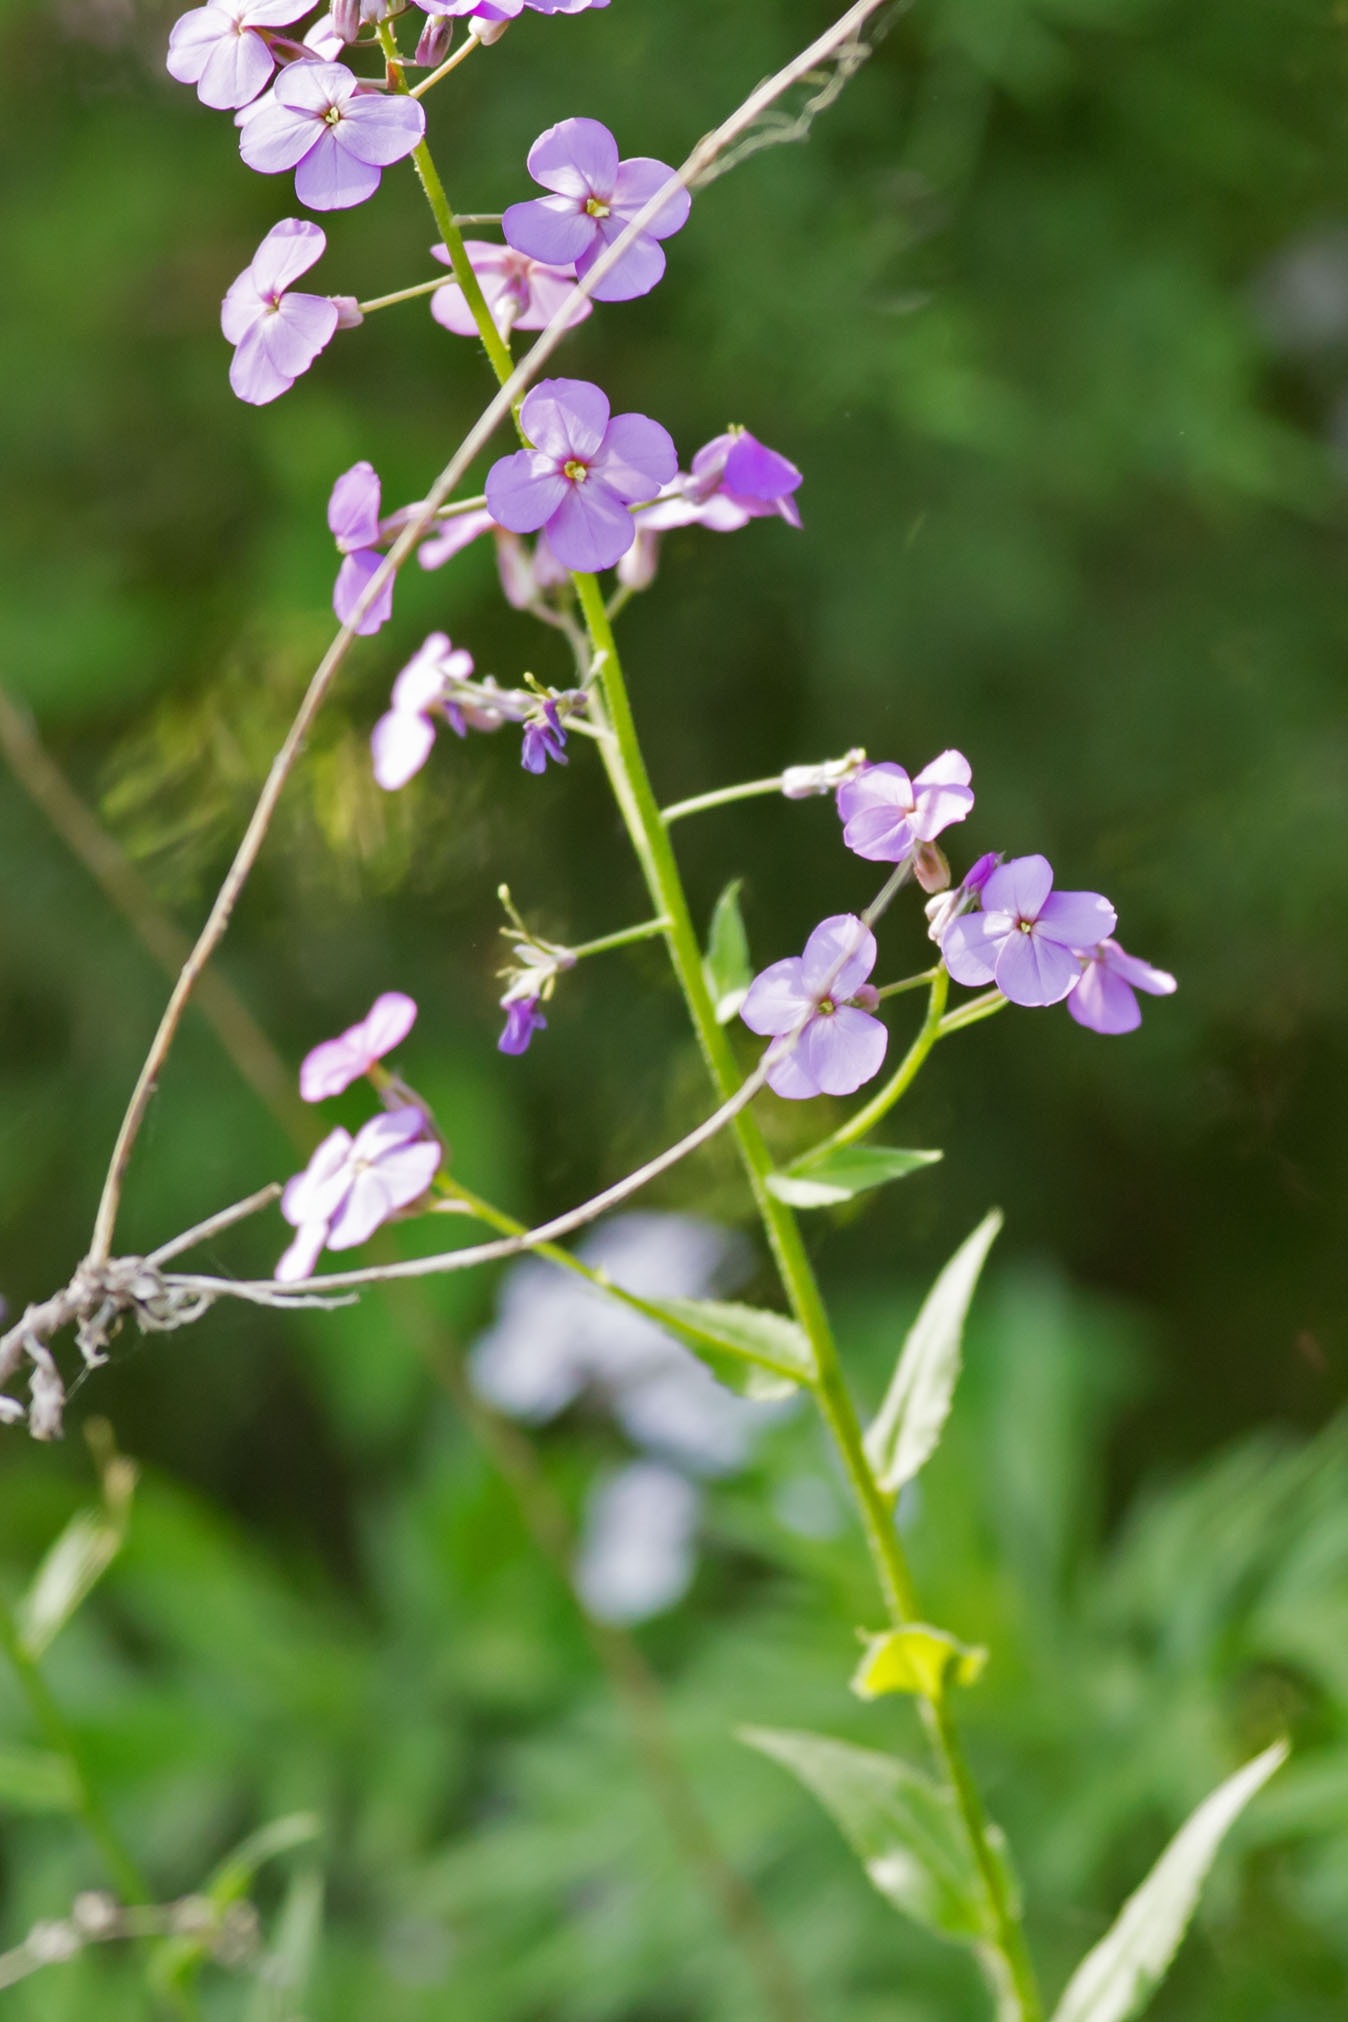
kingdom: Plantae
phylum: Tracheophyta
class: Magnoliopsida
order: Brassicales
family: Brassicaceae
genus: Hesperis
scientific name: Hesperis matronalis
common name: Dame's-violet
